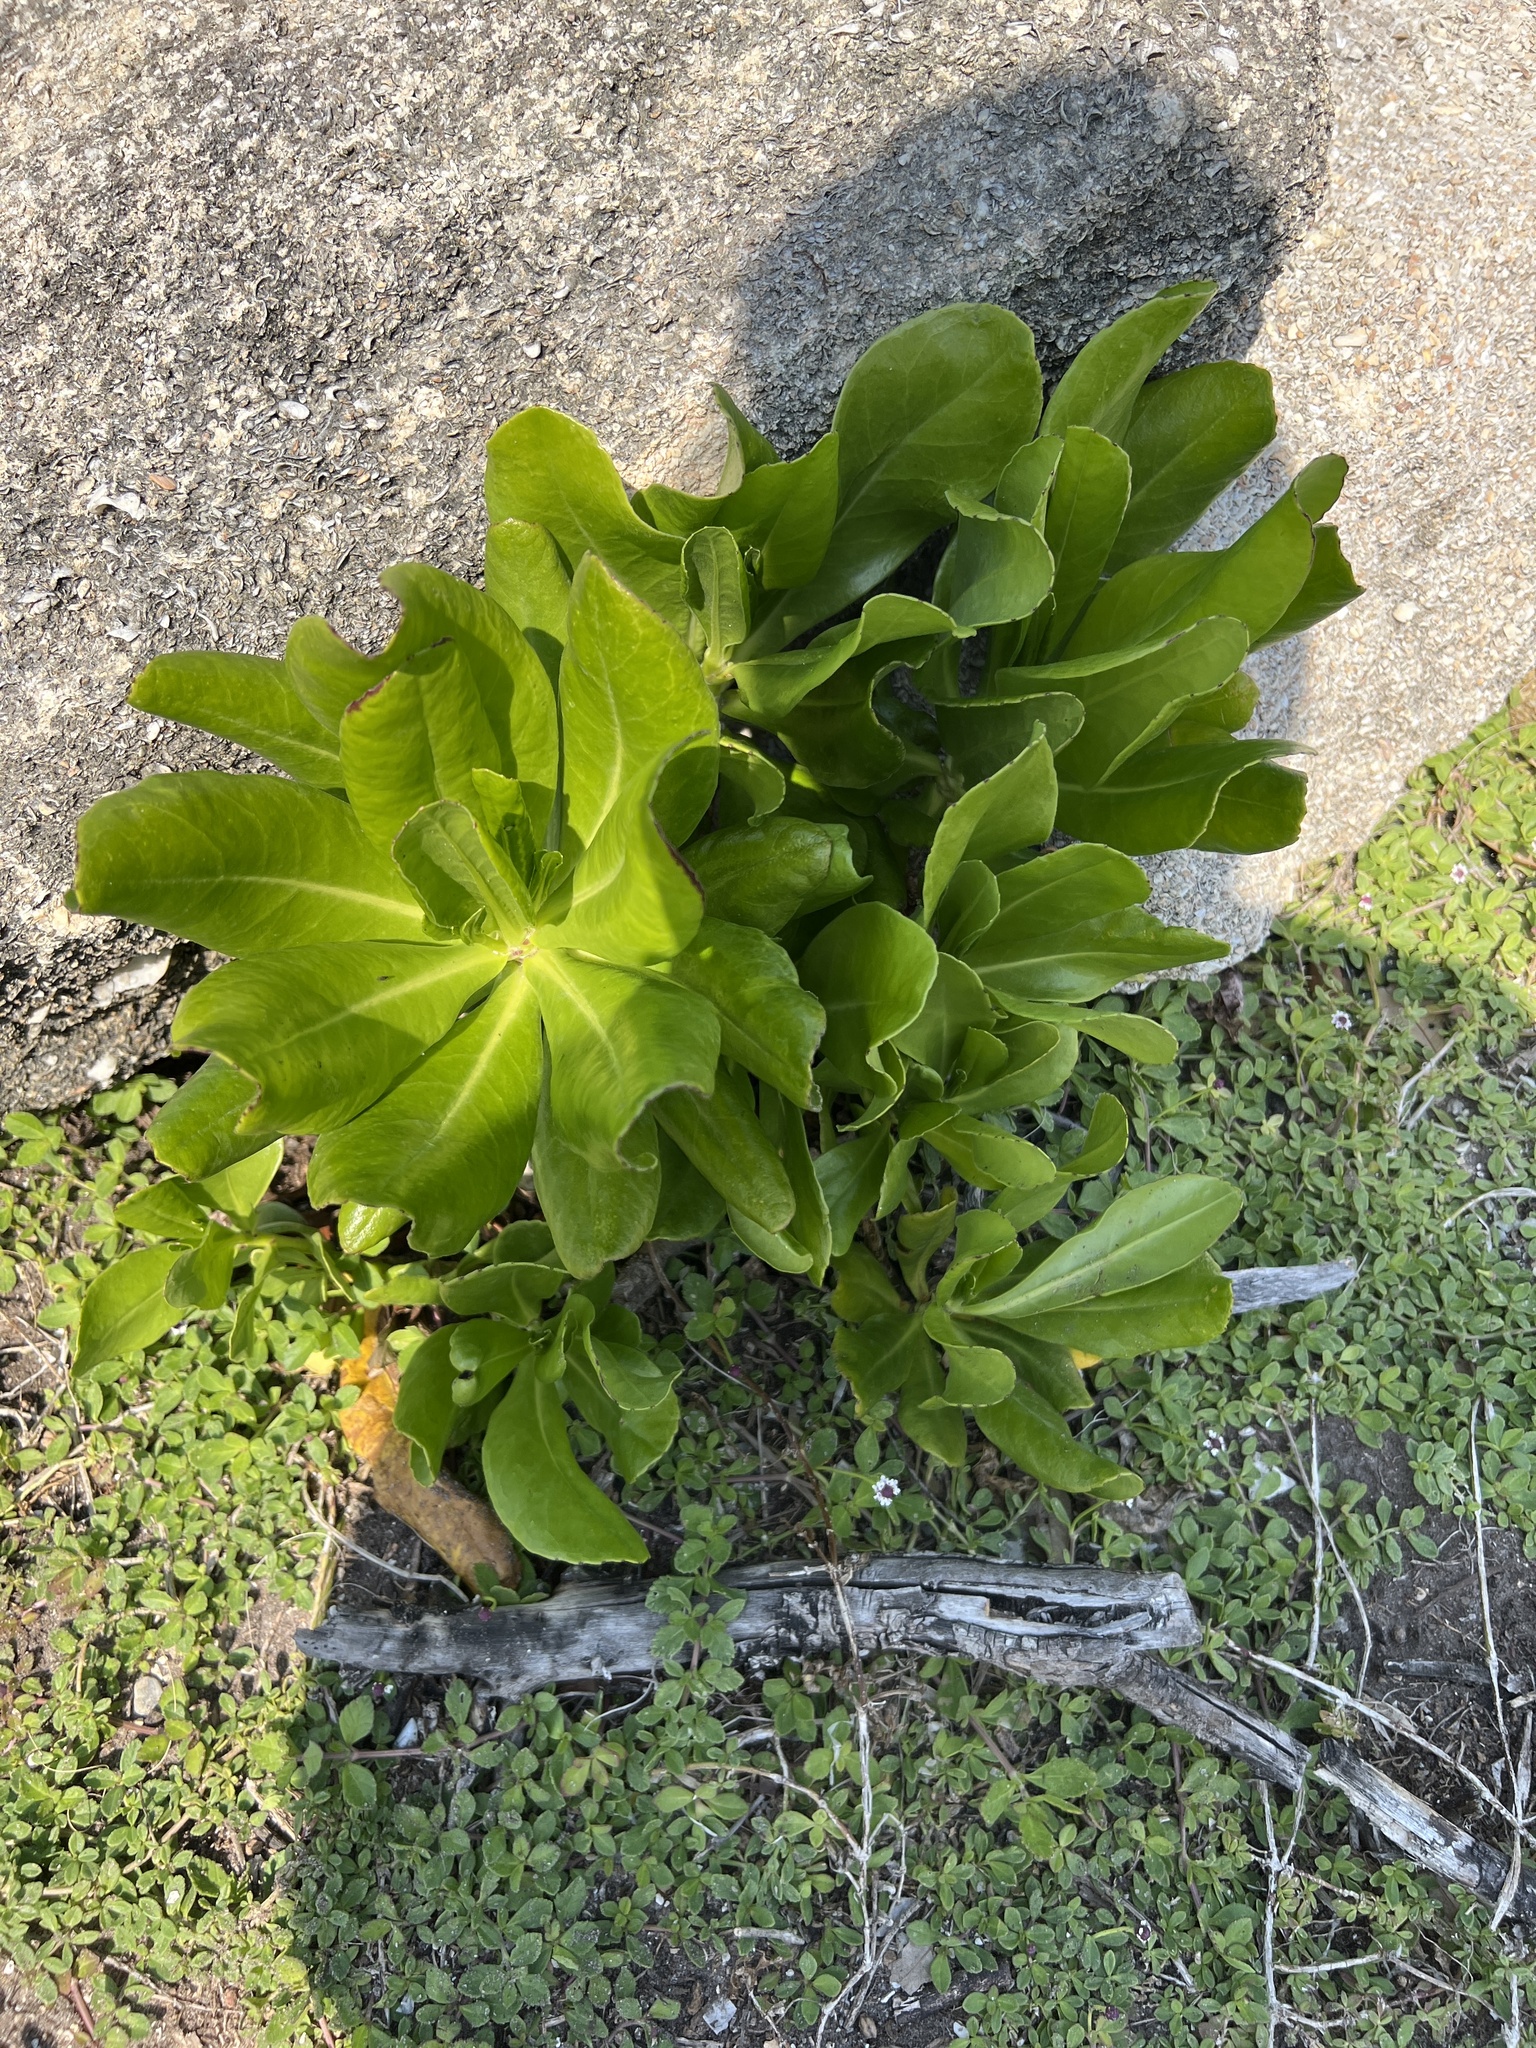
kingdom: Plantae
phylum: Tracheophyta
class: Magnoliopsida
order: Asterales
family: Goodeniaceae
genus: Scaevola
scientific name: Scaevola taccada
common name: Sea lettucetree
